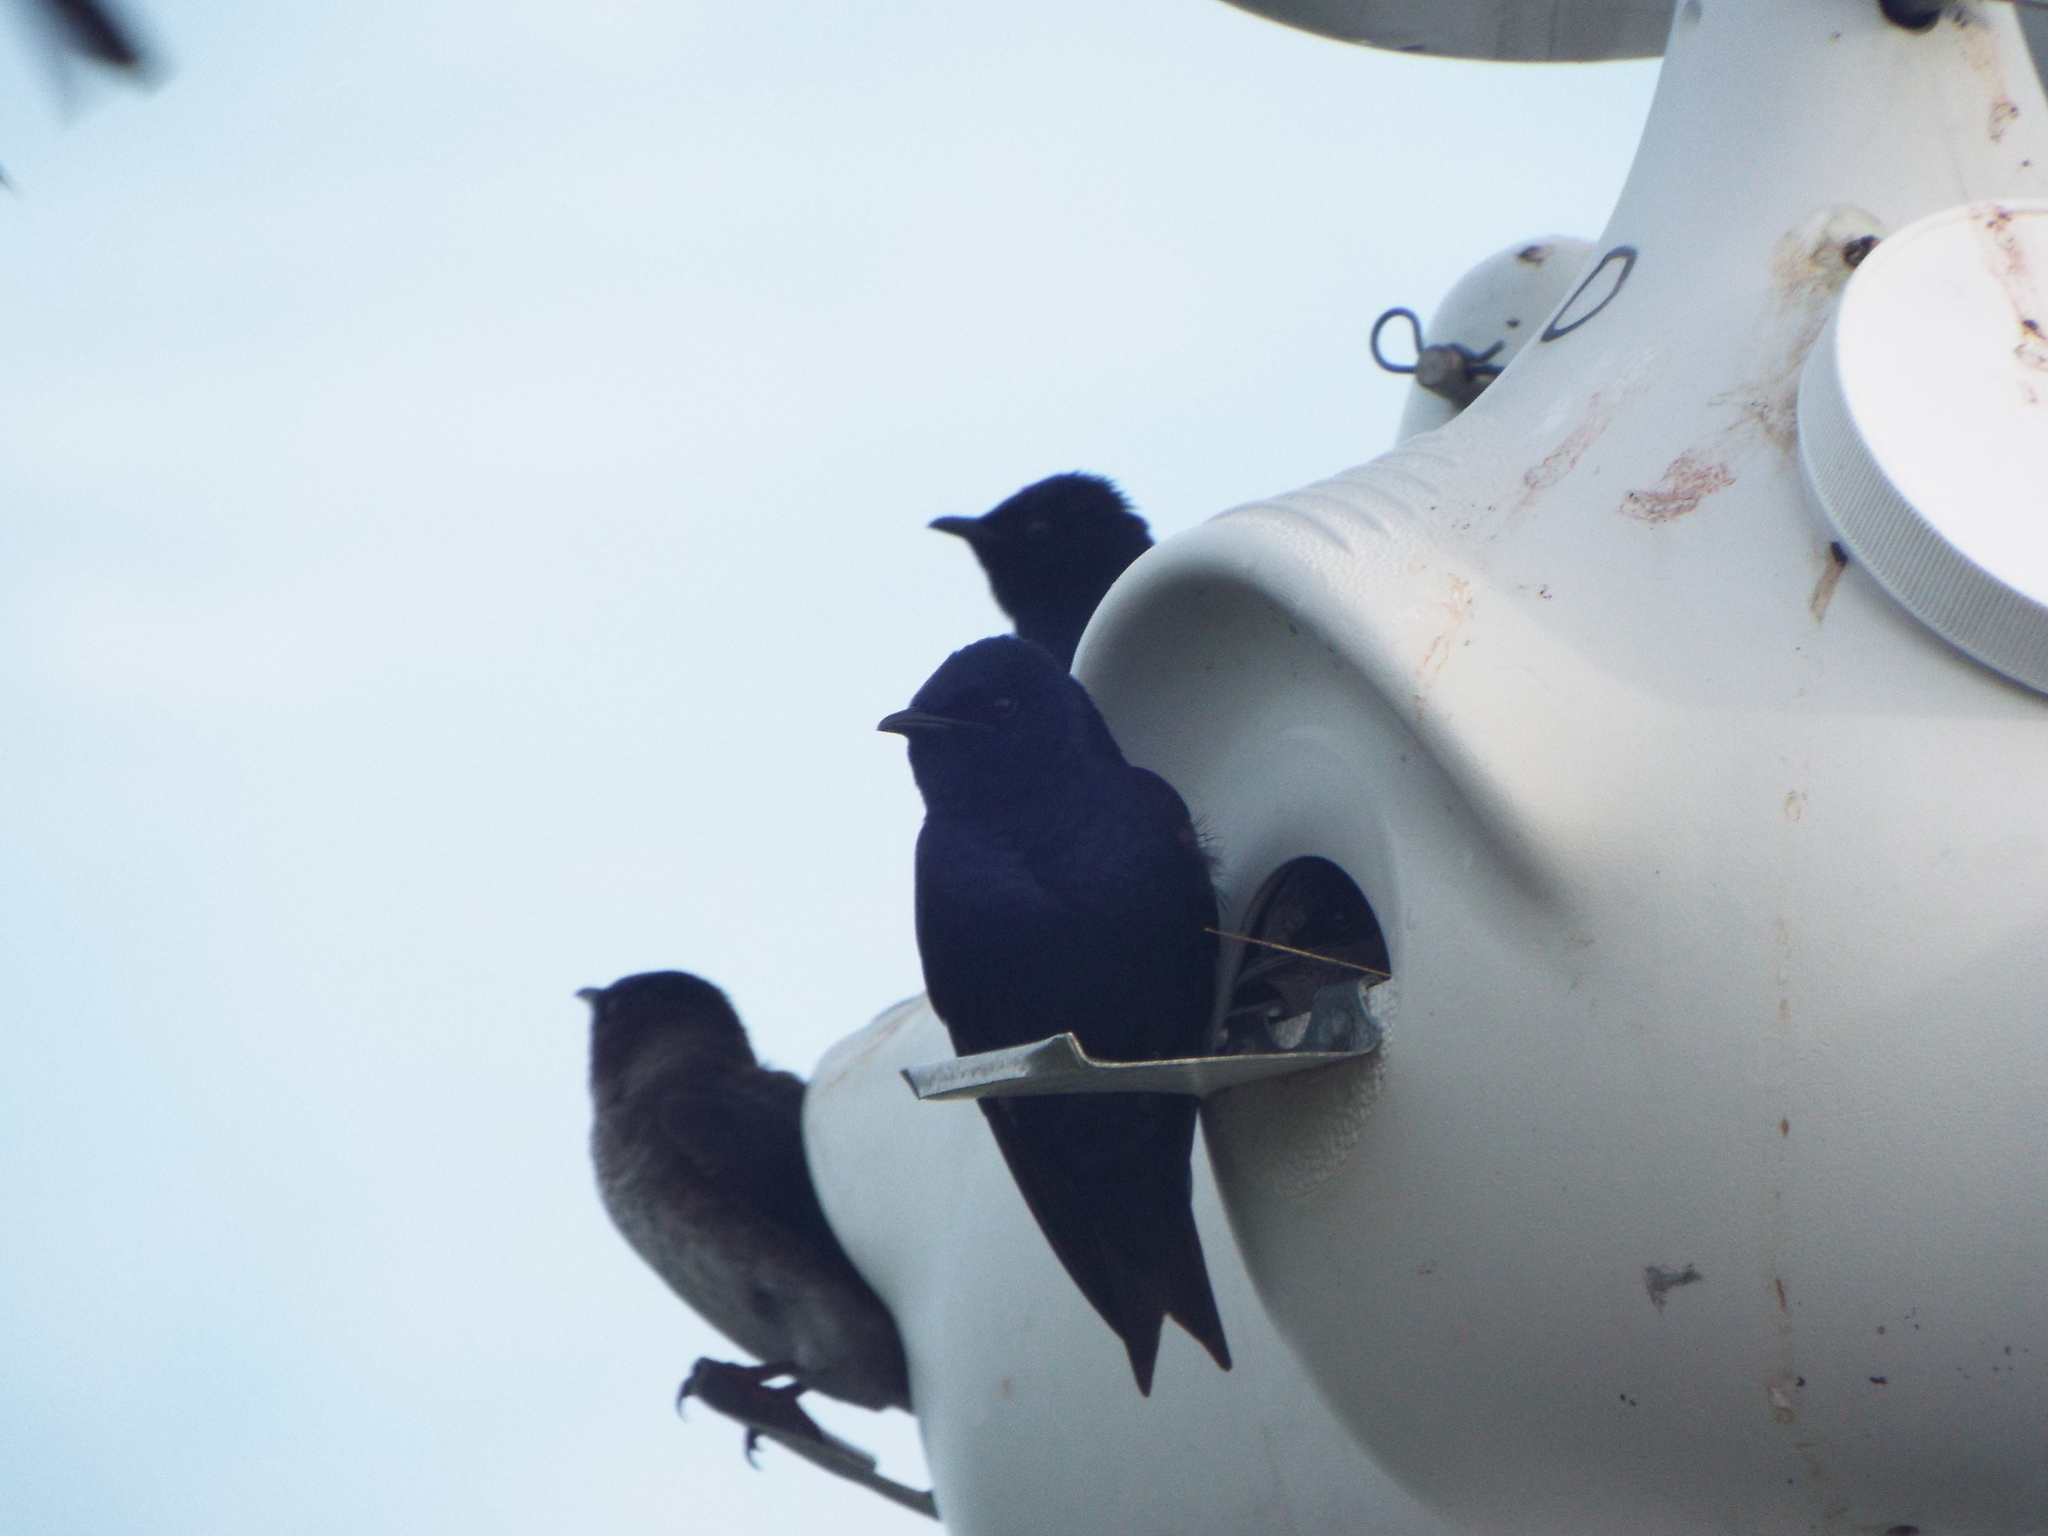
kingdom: Animalia
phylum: Chordata
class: Aves
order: Passeriformes
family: Hirundinidae
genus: Progne
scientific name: Progne subis
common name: Purple martin
